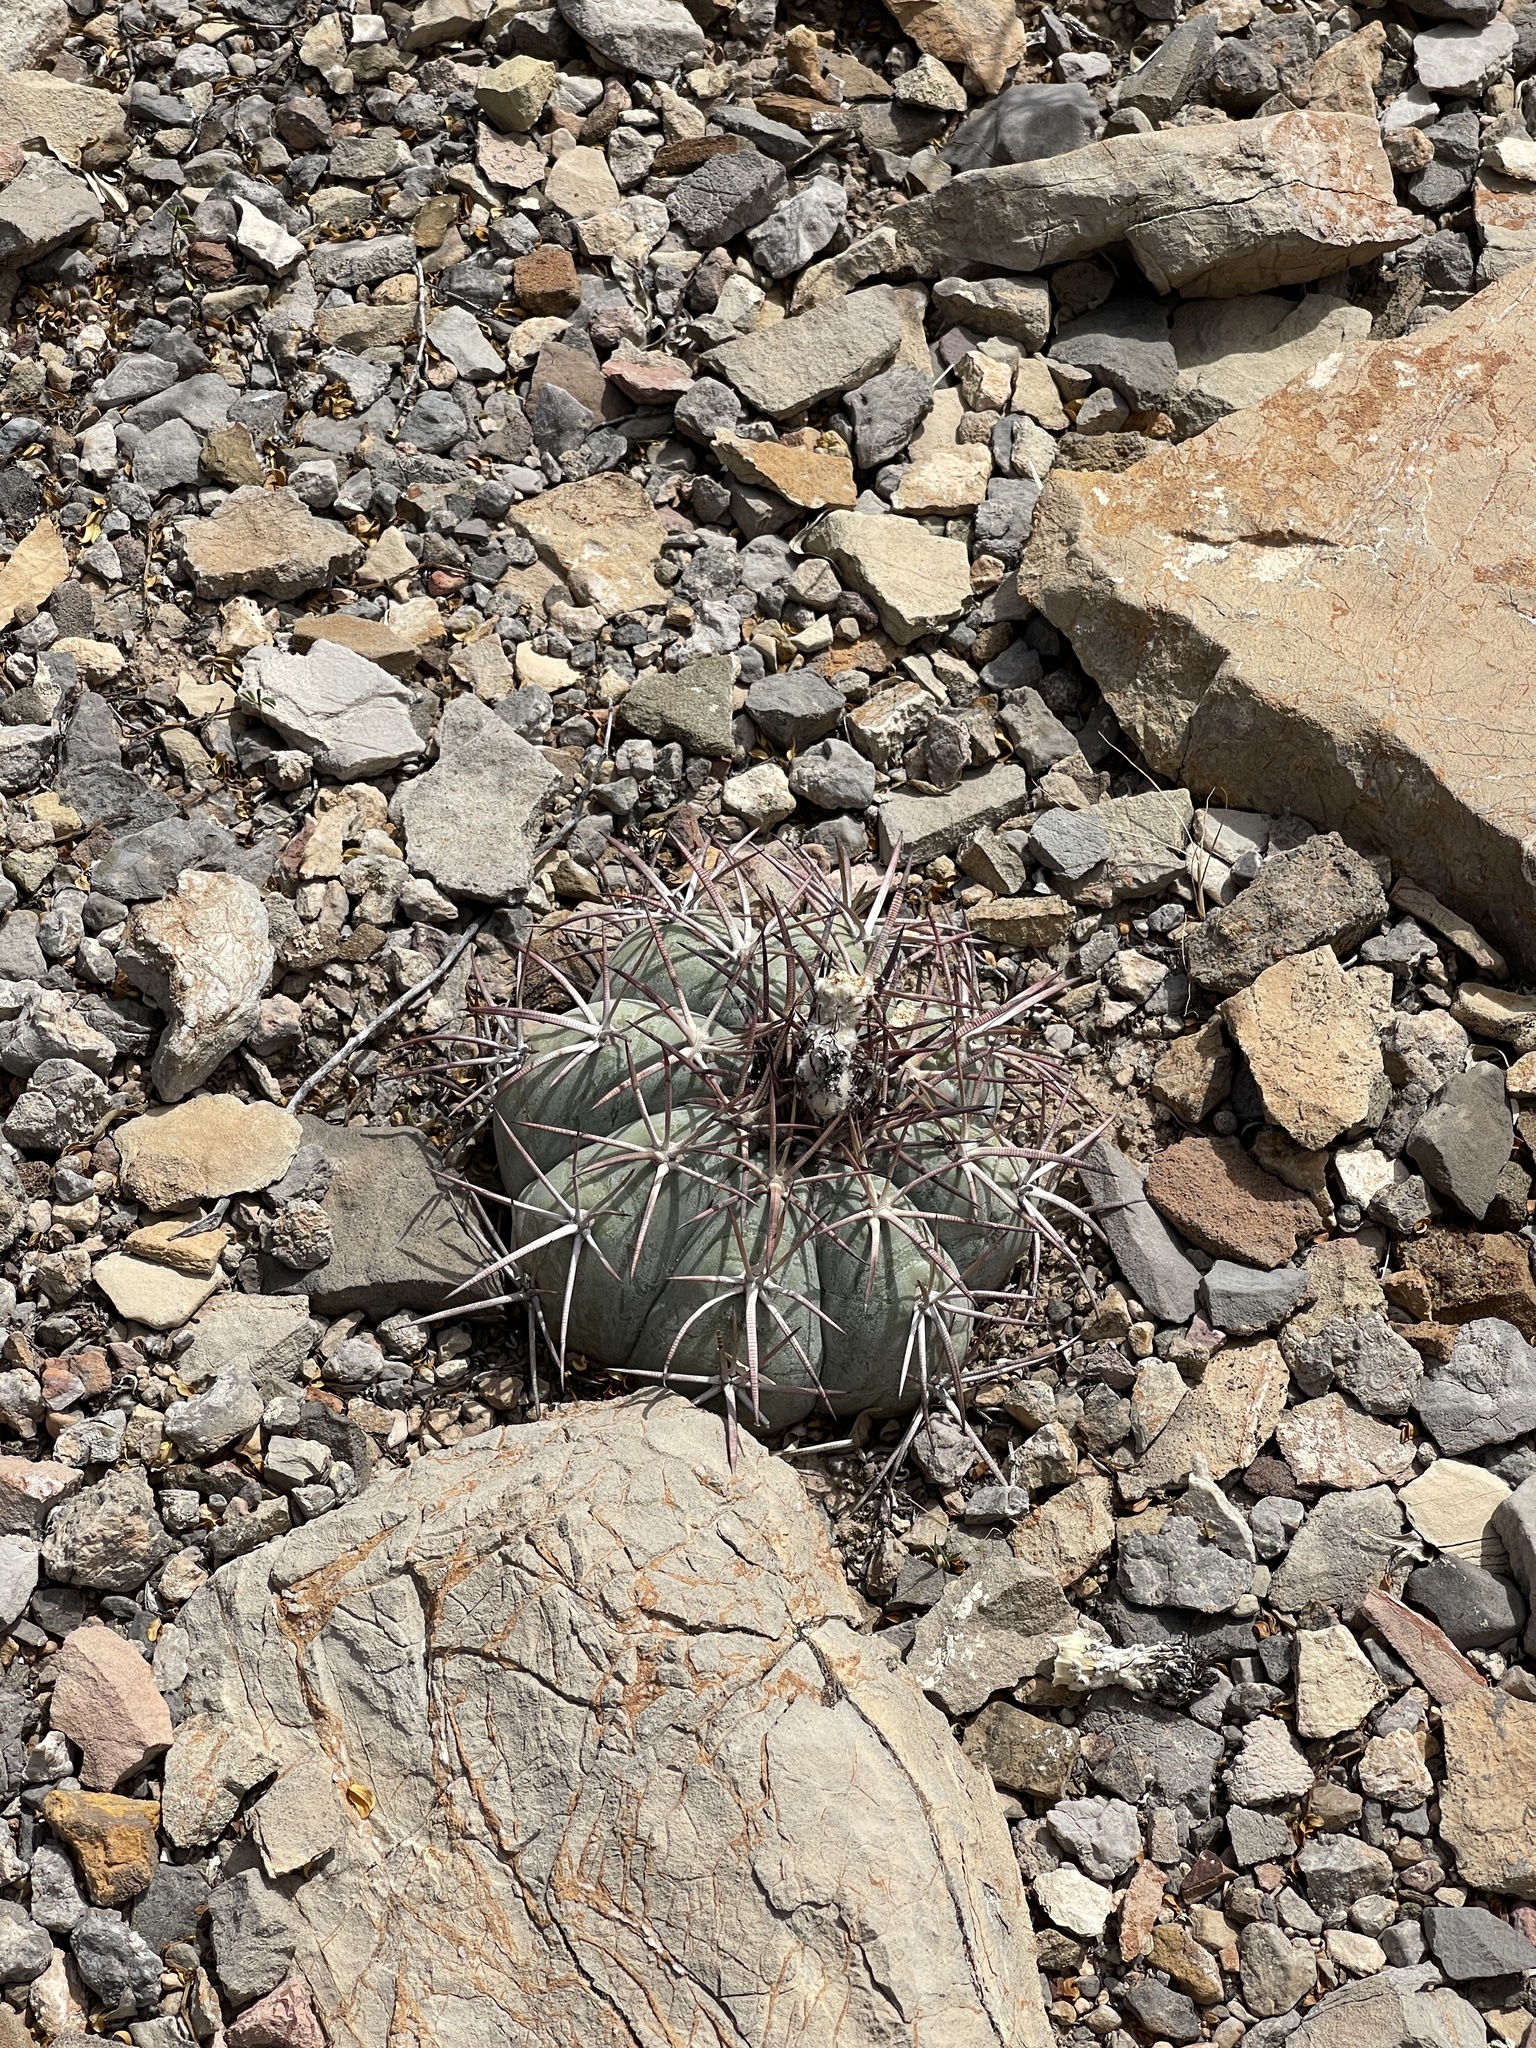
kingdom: Plantae
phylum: Tracheophyta
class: Magnoliopsida
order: Caryophyllales
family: Cactaceae
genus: Echinocactus
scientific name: Echinocactus horizonthalonius
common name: Devilshead
